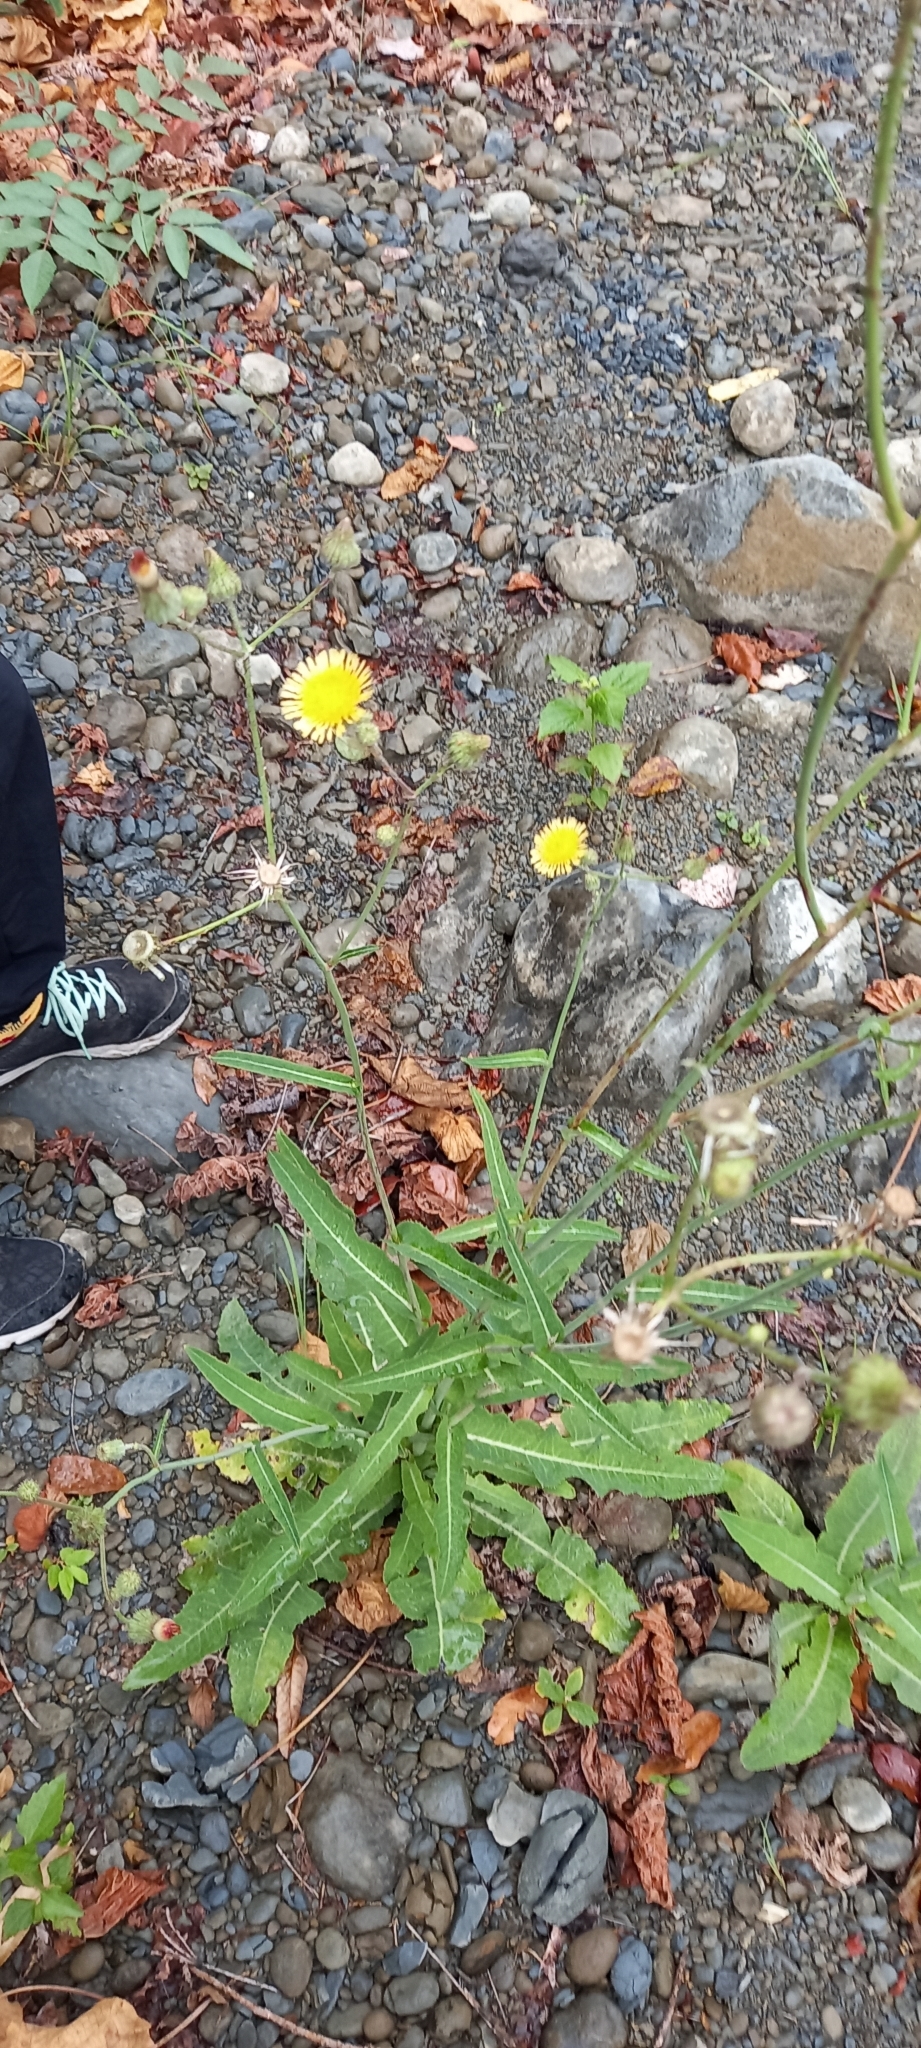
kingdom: Plantae
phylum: Tracheophyta
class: Magnoliopsida
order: Asterales
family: Asteraceae
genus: Sonchus
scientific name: Sonchus arvensis
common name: Perennial sow-thistle
